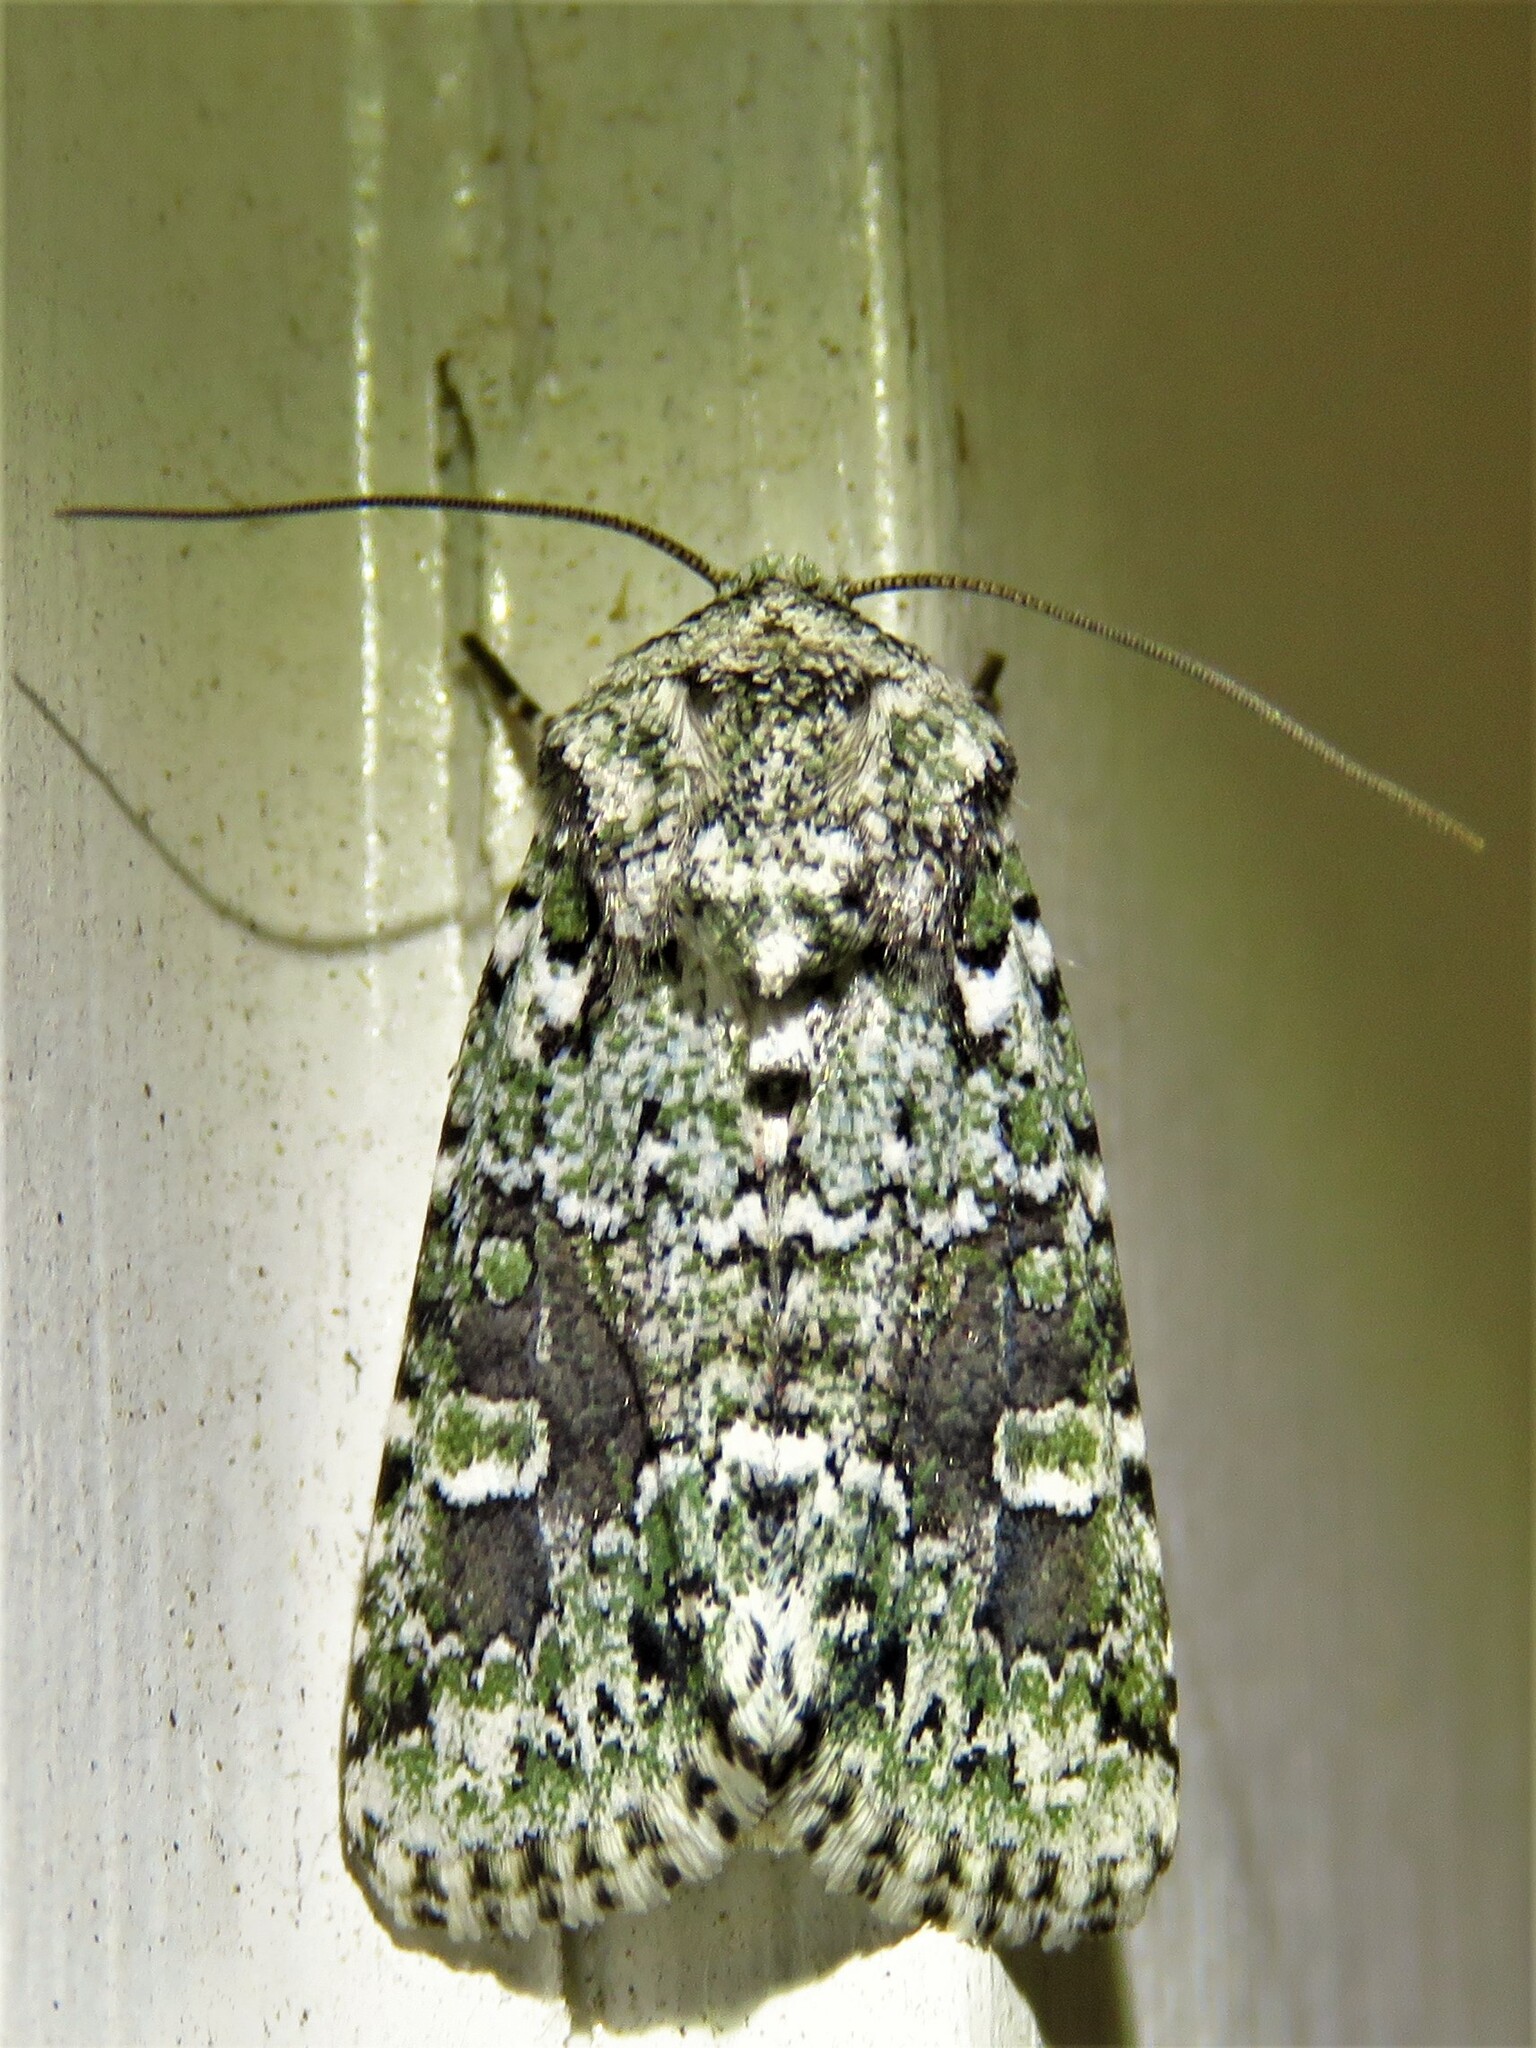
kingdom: Animalia
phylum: Arthropoda
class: Insecta
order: Lepidoptera
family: Noctuidae
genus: Lacinipolia
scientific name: Lacinipolia laudabilis
